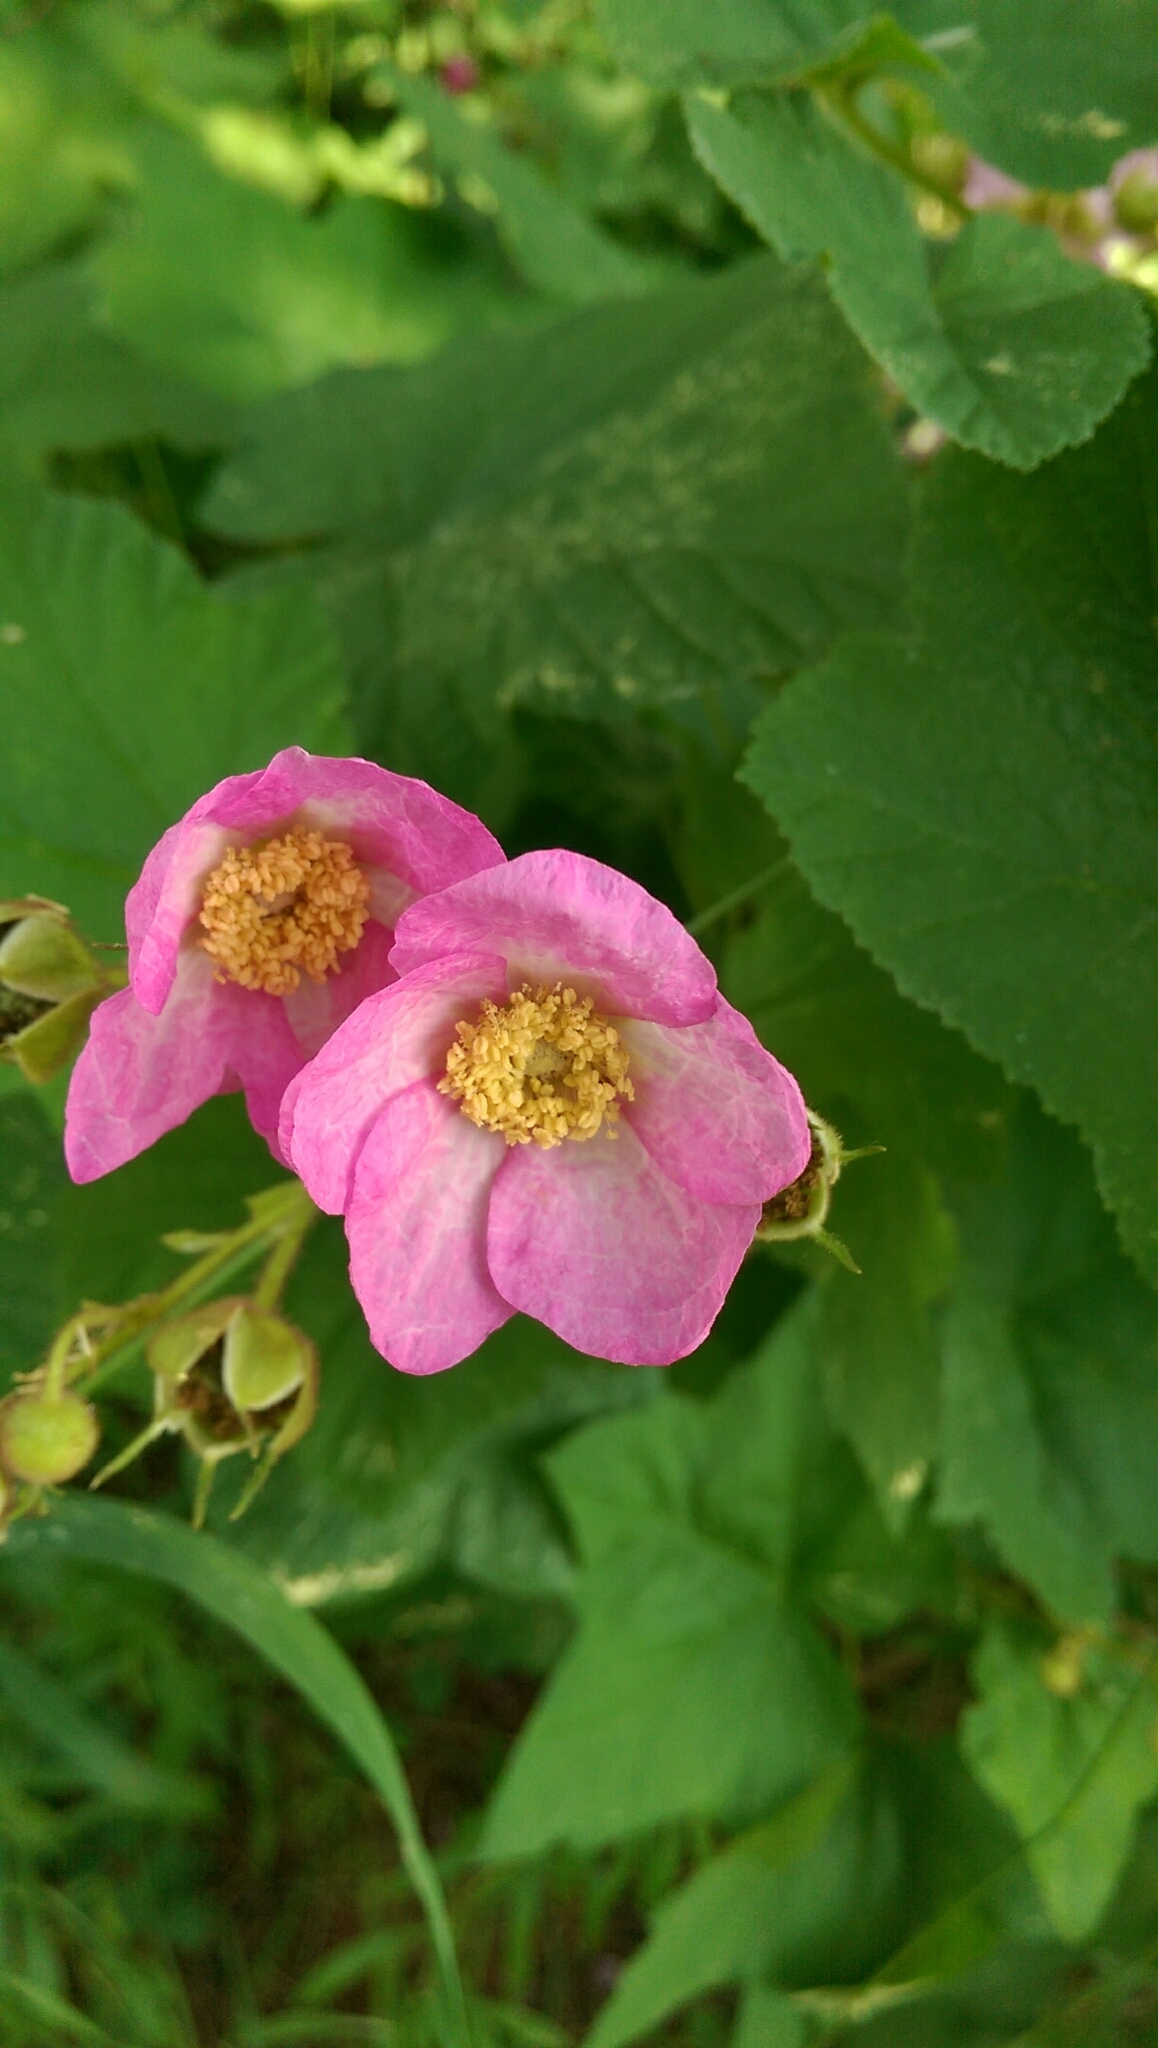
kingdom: Plantae
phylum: Tracheophyta
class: Magnoliopsida
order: Rosales
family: Rosaceae
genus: Rubus
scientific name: Rubus odoratus
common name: Purple-flowered raspberry
